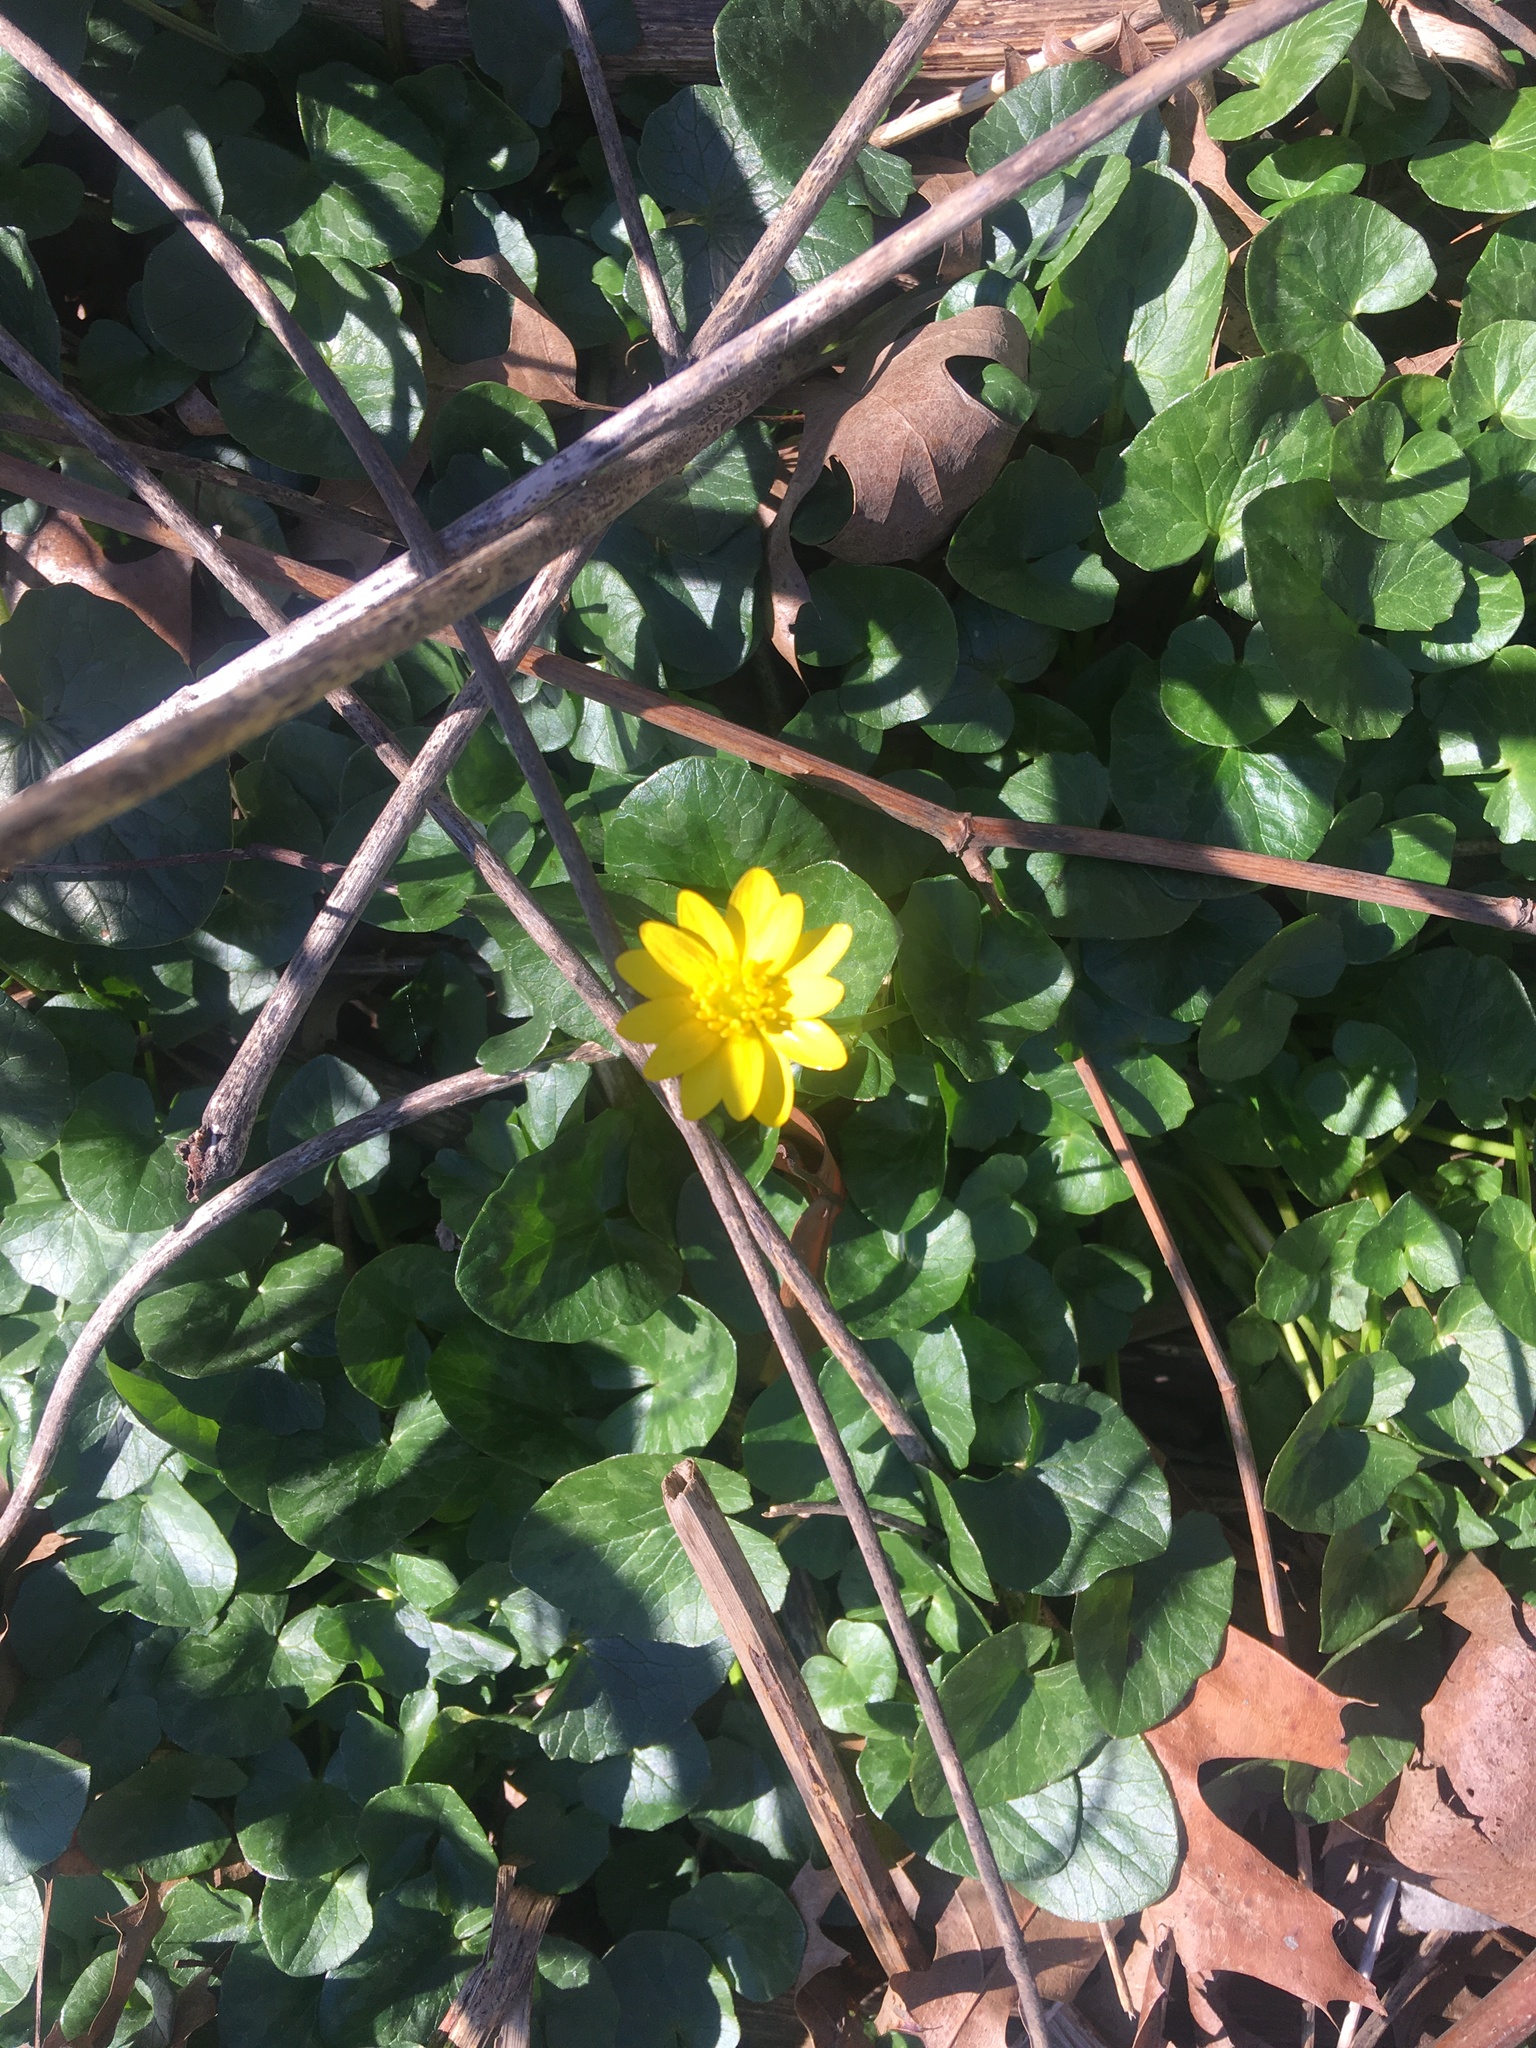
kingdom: Plantae
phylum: Tracheophyta
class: Magnoliopsida
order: Ranunculales
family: Ranunculaceae
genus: Ficaria
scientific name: Ficaria verna
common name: Lesser celandine
